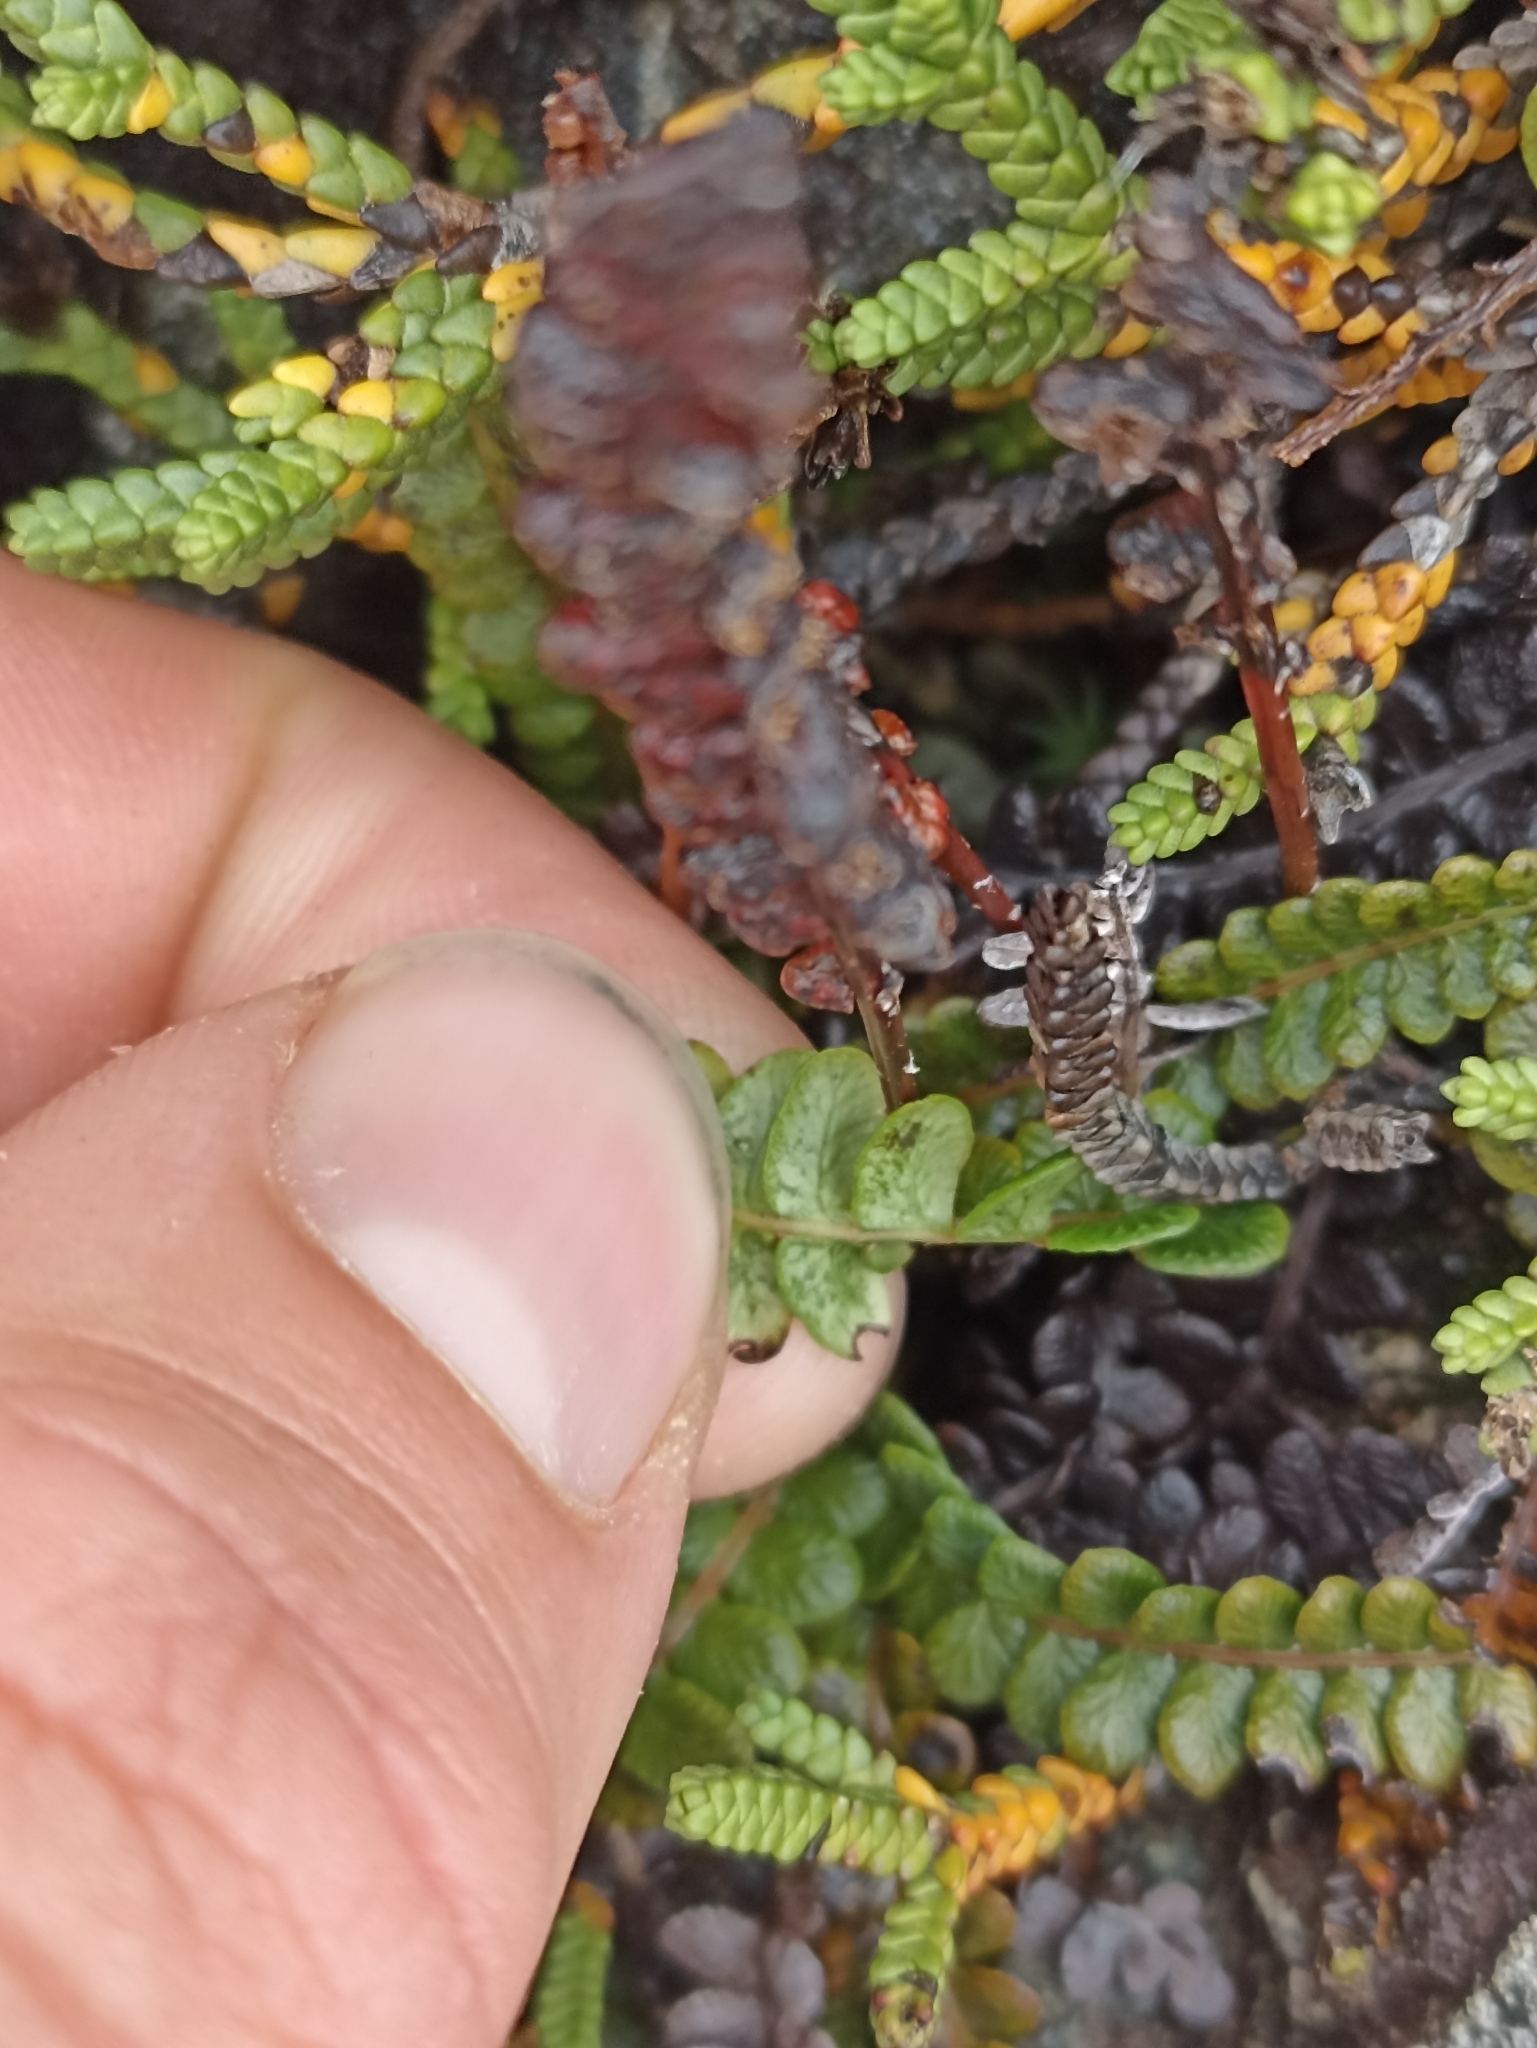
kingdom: Plantae
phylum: Tracheophyta
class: Polypodiopsida
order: Polypodiales
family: Blechnaceae
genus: Austroblechnum
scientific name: Austroblechnum penna-marina
